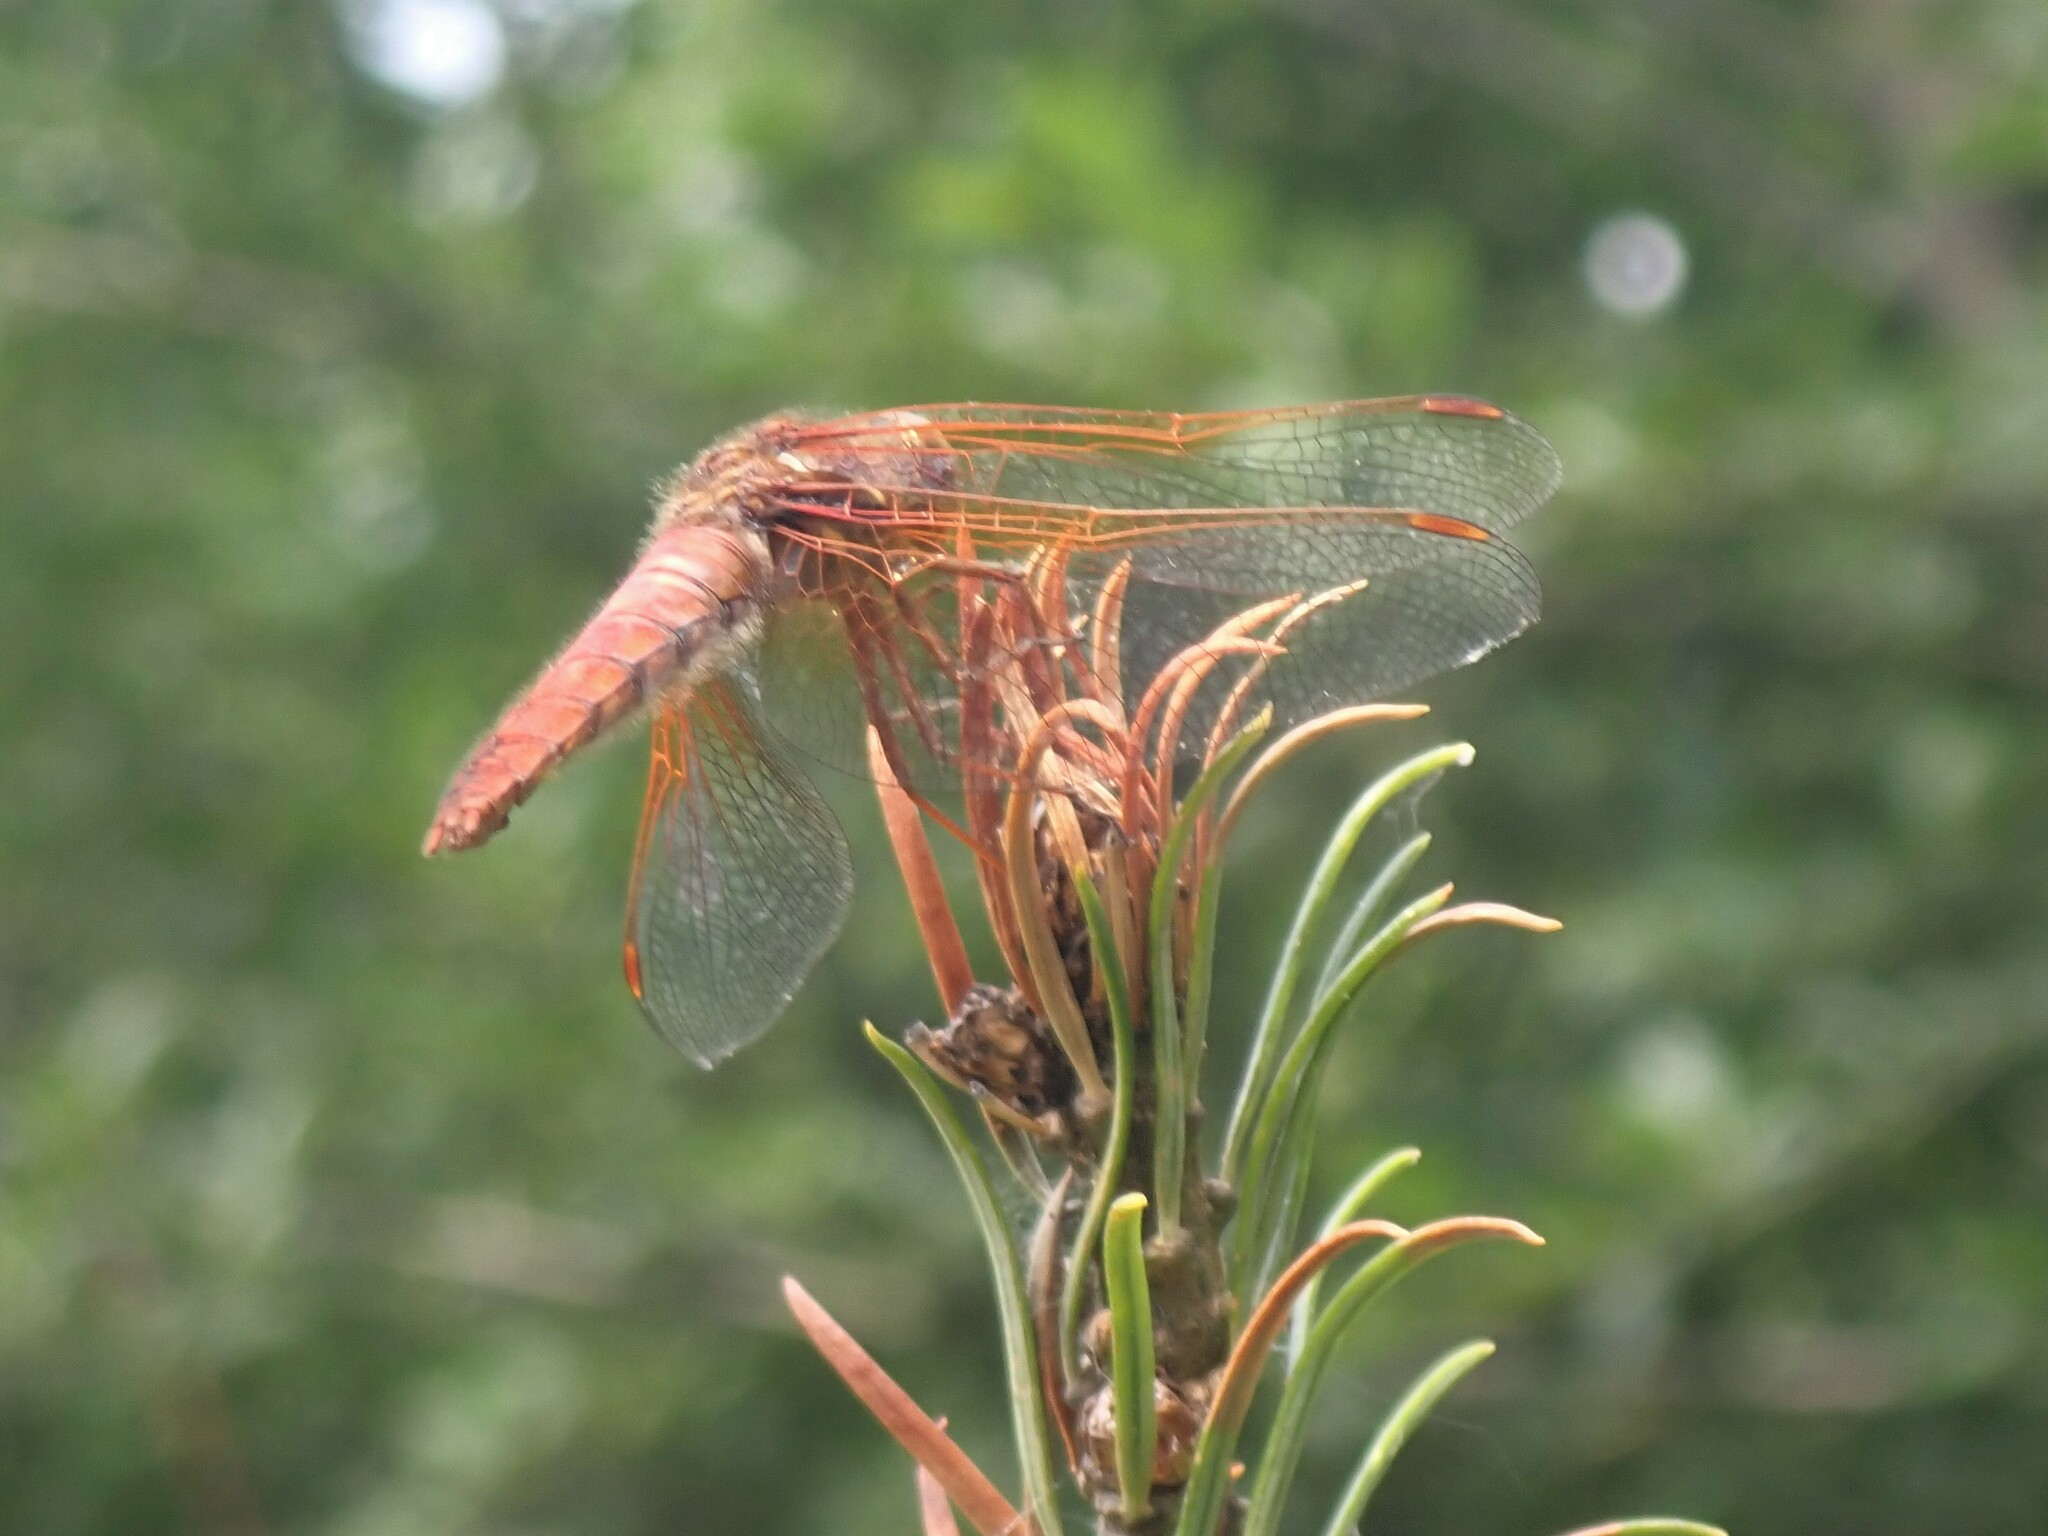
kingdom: Animalia
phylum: Arthropoda
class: Insecta
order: Odonata
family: Libellulidae
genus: Sympetrum
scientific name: Sympetrum illotum
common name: Cardinal meadowhawk
